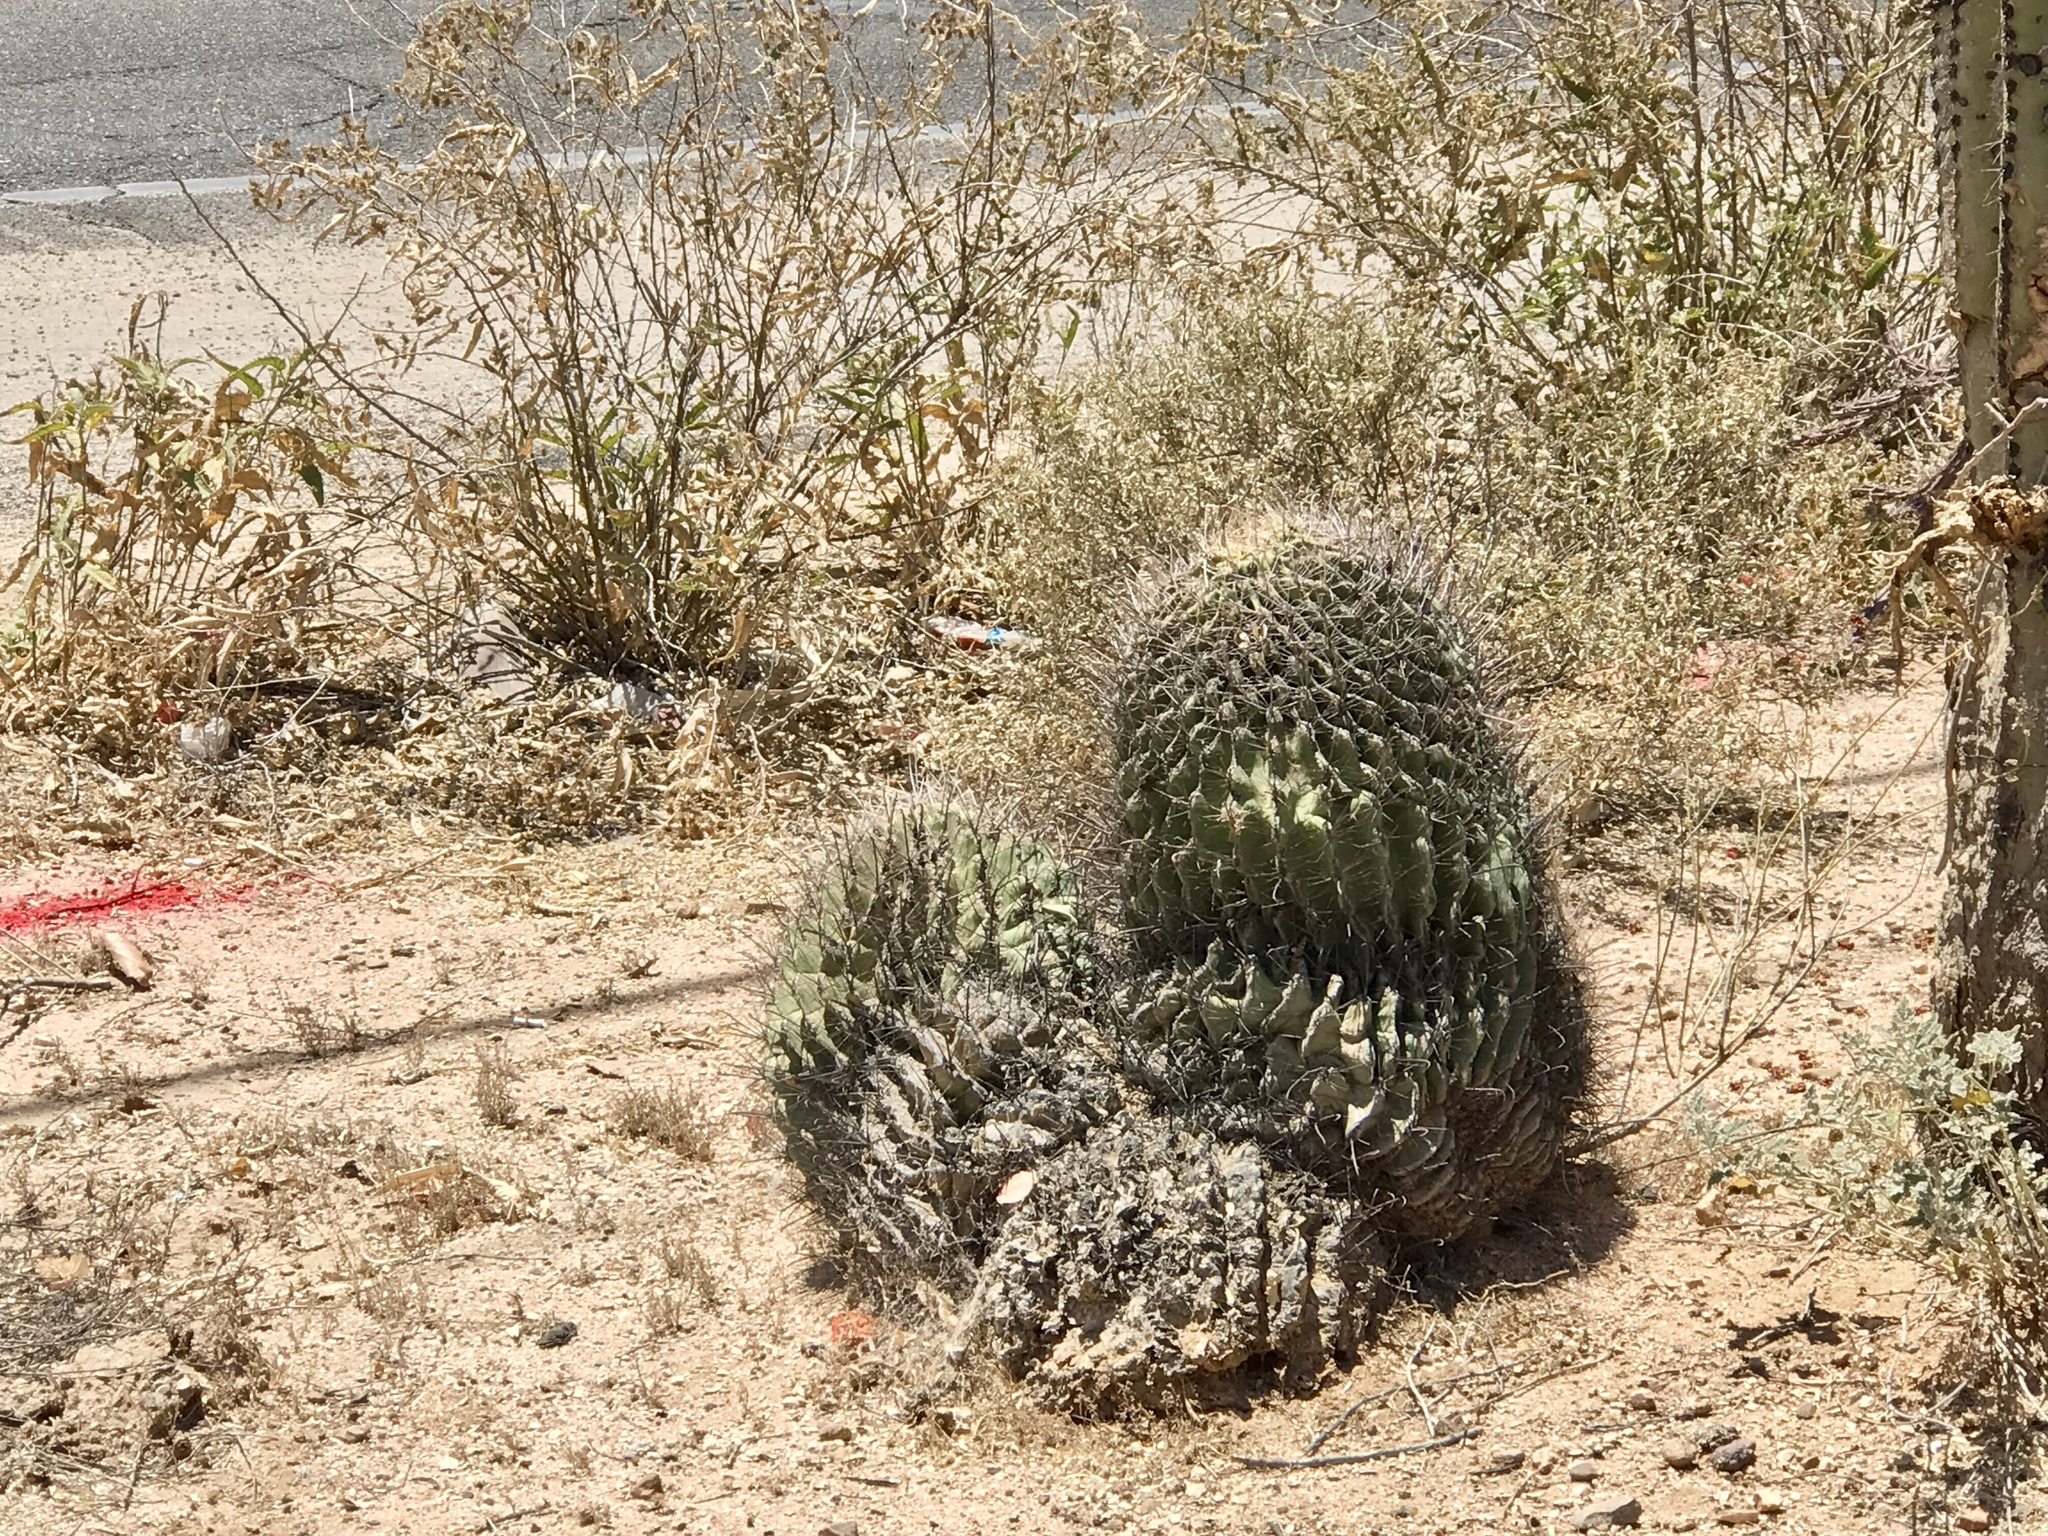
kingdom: Plantae
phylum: Tracheophyta
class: Magnoliopsida
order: Caryophyllales
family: Cactaceae
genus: Ferocactus
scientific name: Ferocactus wislizeni
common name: Candy barrel cactus
